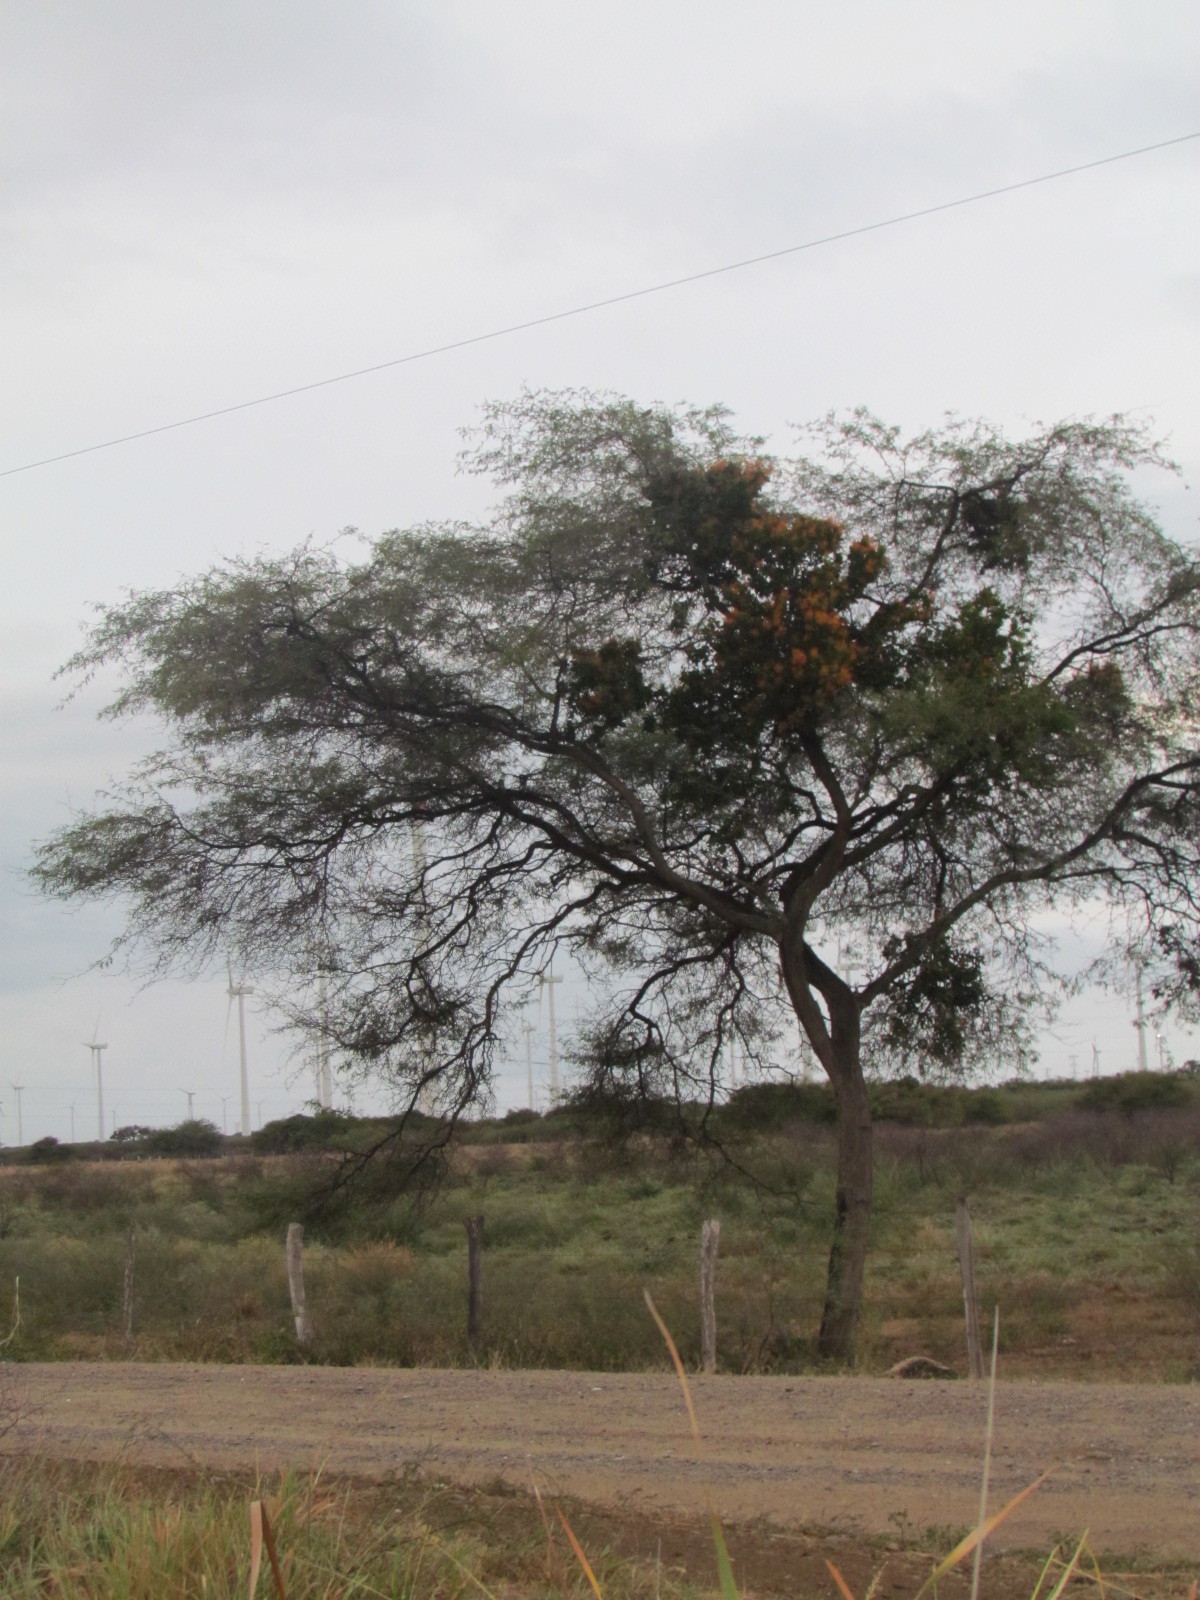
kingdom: Plantae
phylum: Tracheophyta
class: Magnoliopsida
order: Fabales
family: Fabaceae
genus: Prosopis
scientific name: Prosopis laevigata
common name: Smooth mesquite
